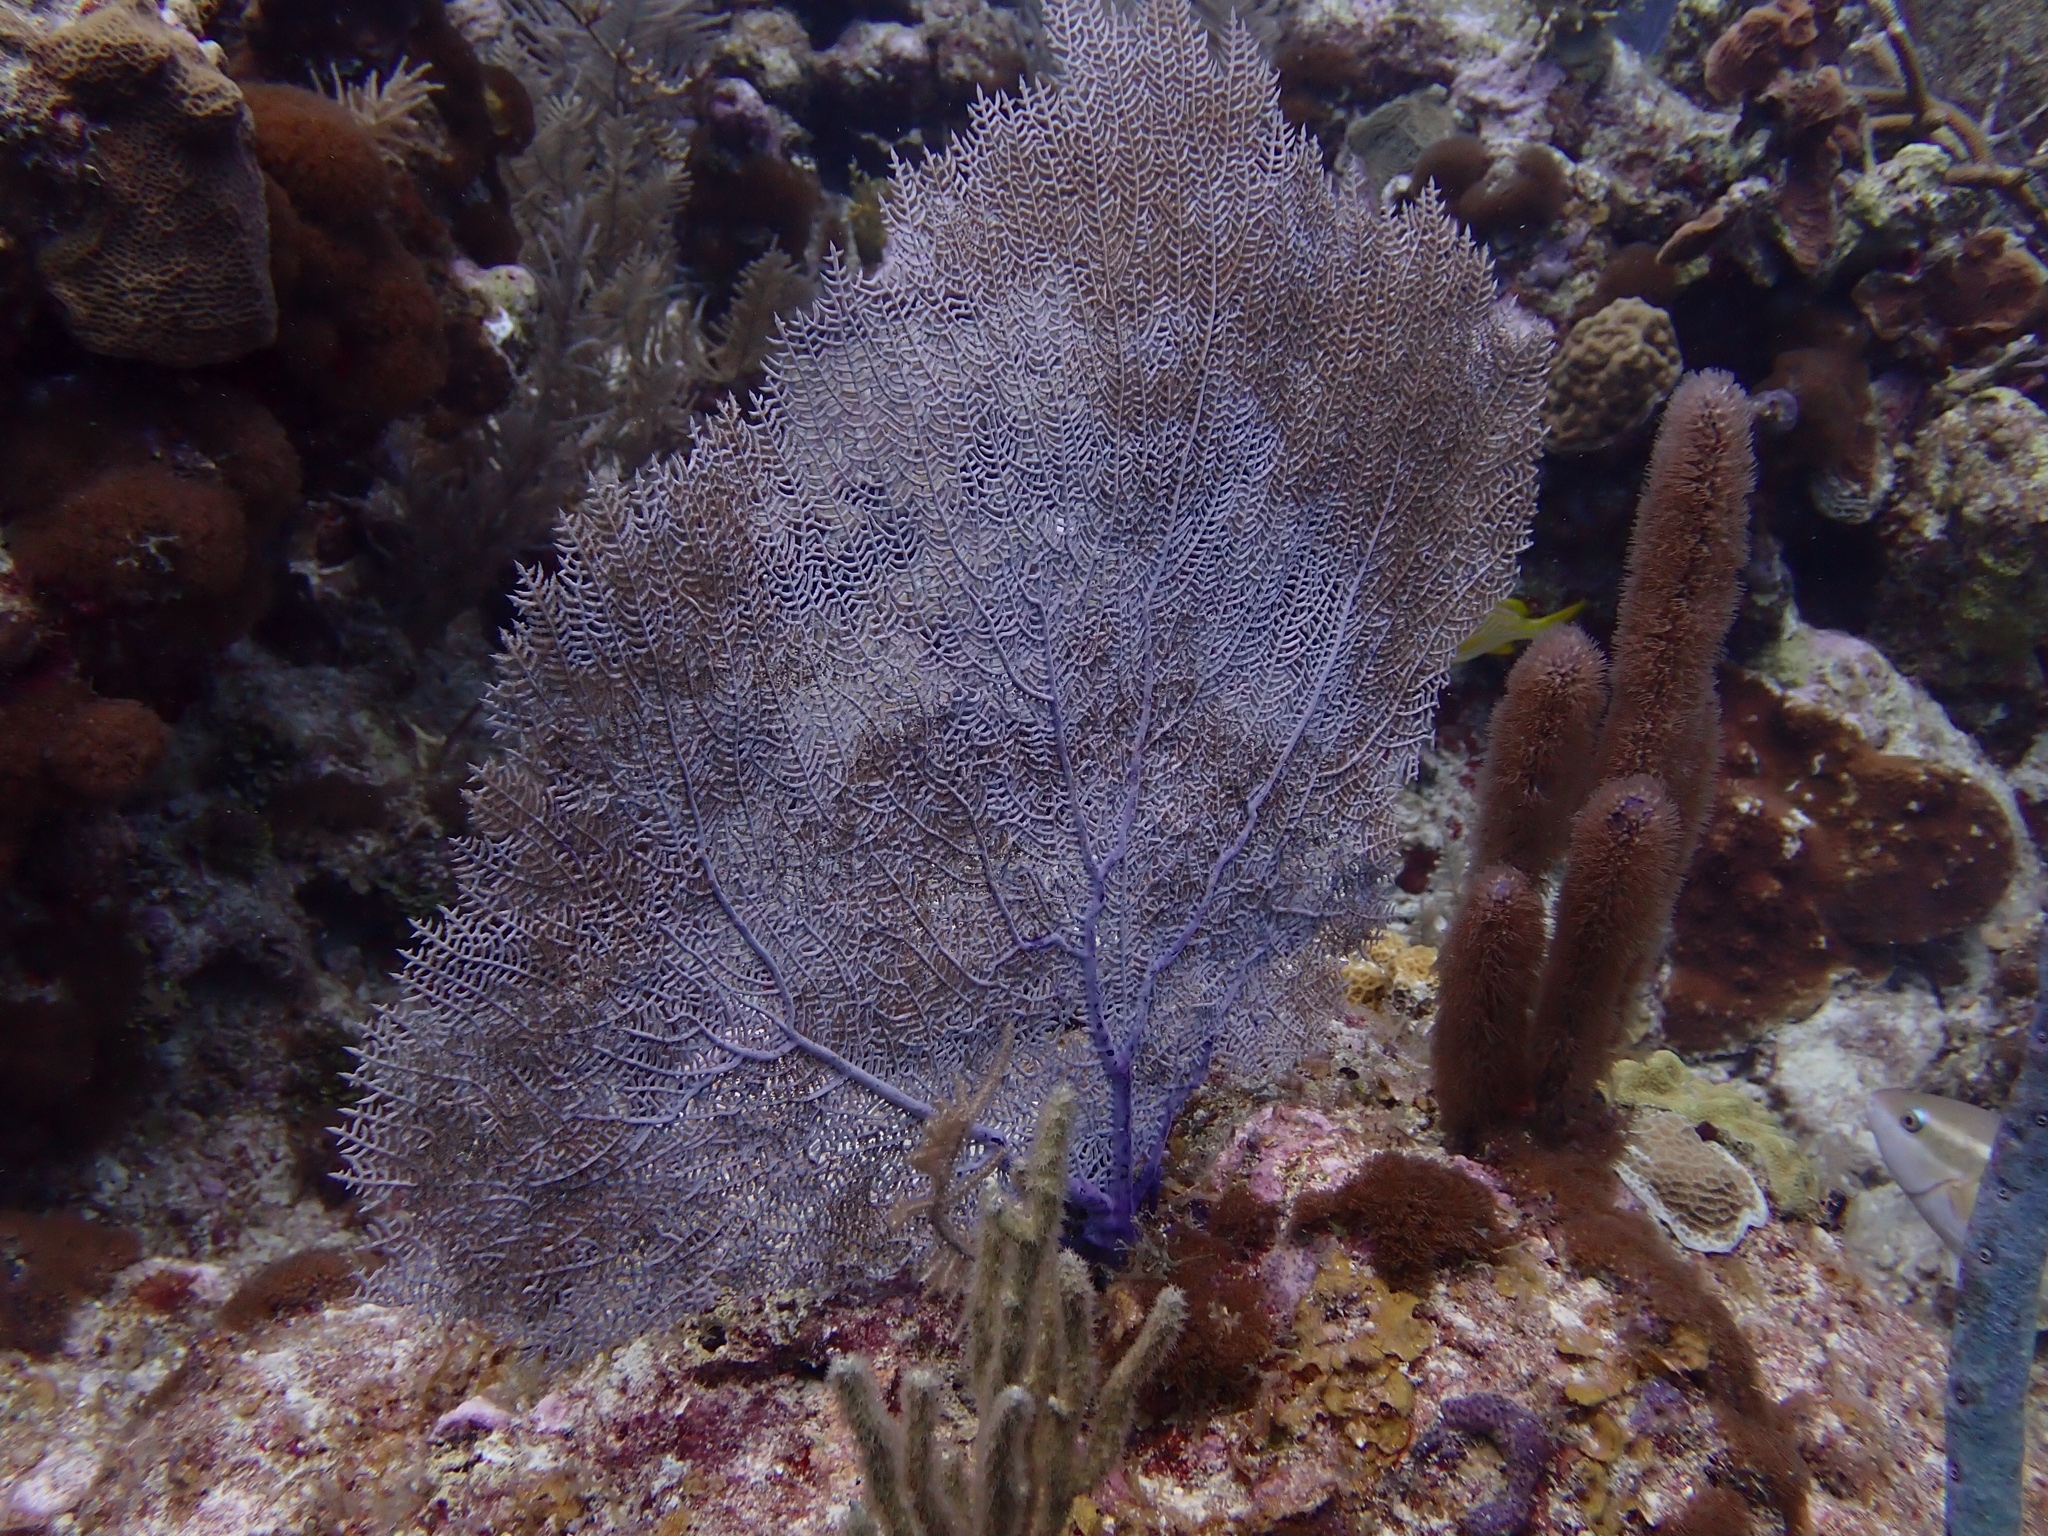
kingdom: Animalia
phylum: Cnidaria
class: Anthozoa
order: Malacalcyonacea
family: Gorgoniidae
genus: Gorgonia
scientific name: Gorgonia ventalina
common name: Common sea fan
